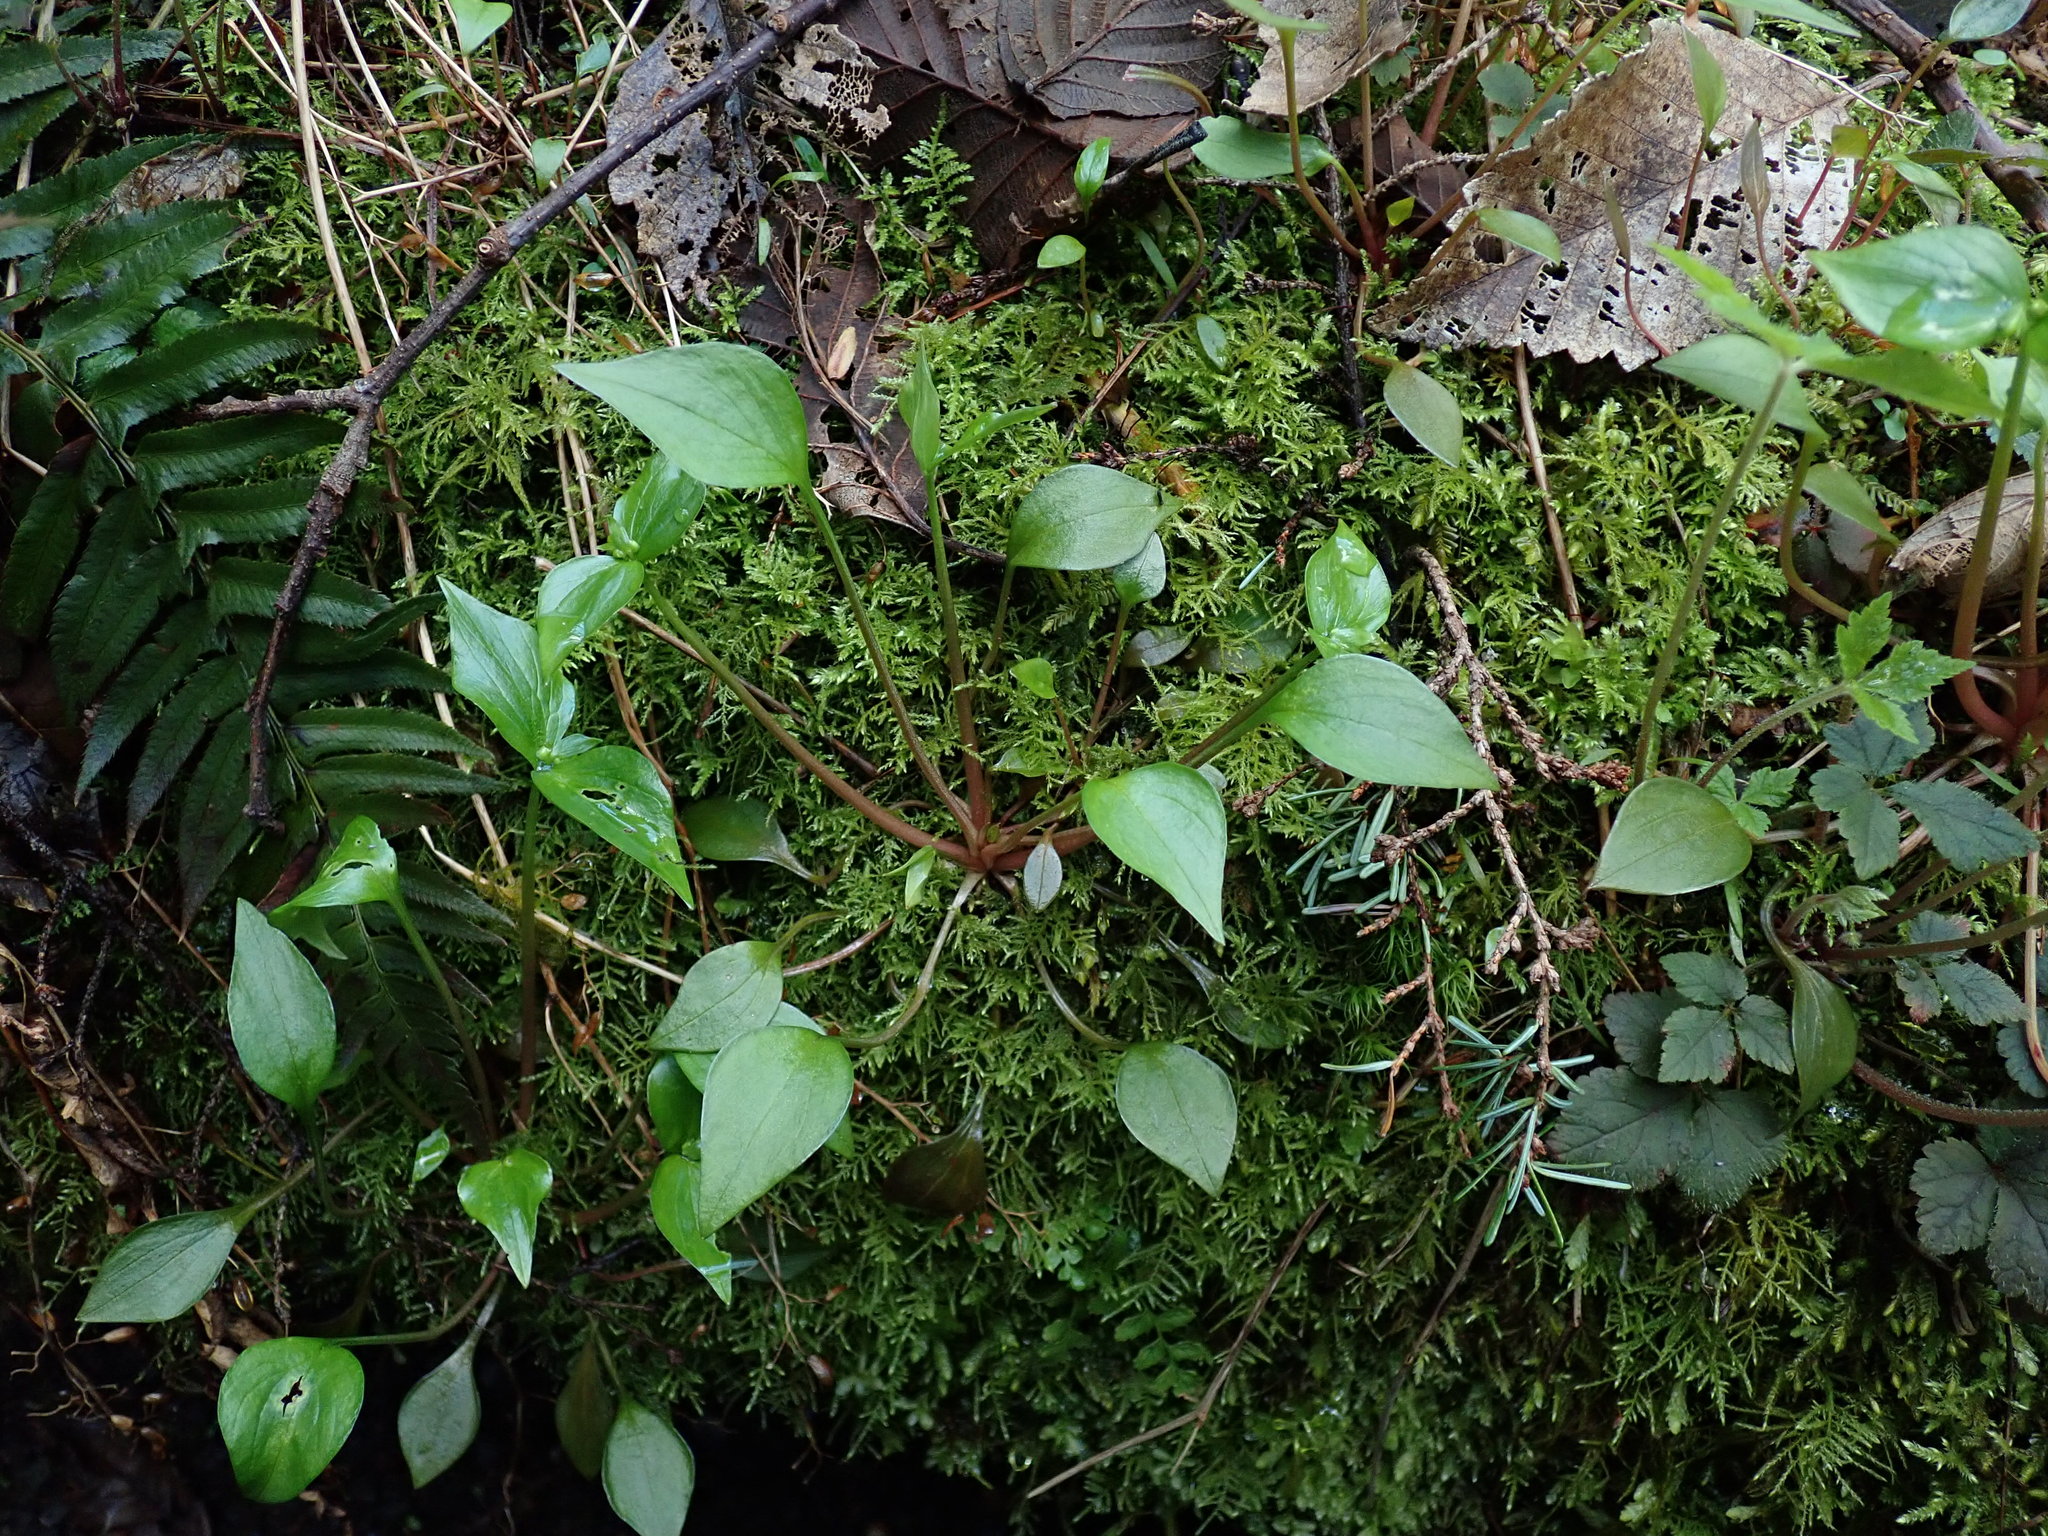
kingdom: Plantae
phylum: Tracheophyta
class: Magnoliopsida
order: Caryophyllales
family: Montiaceae
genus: Claytonia
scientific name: Claytonia sibirica
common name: Pink purslane
